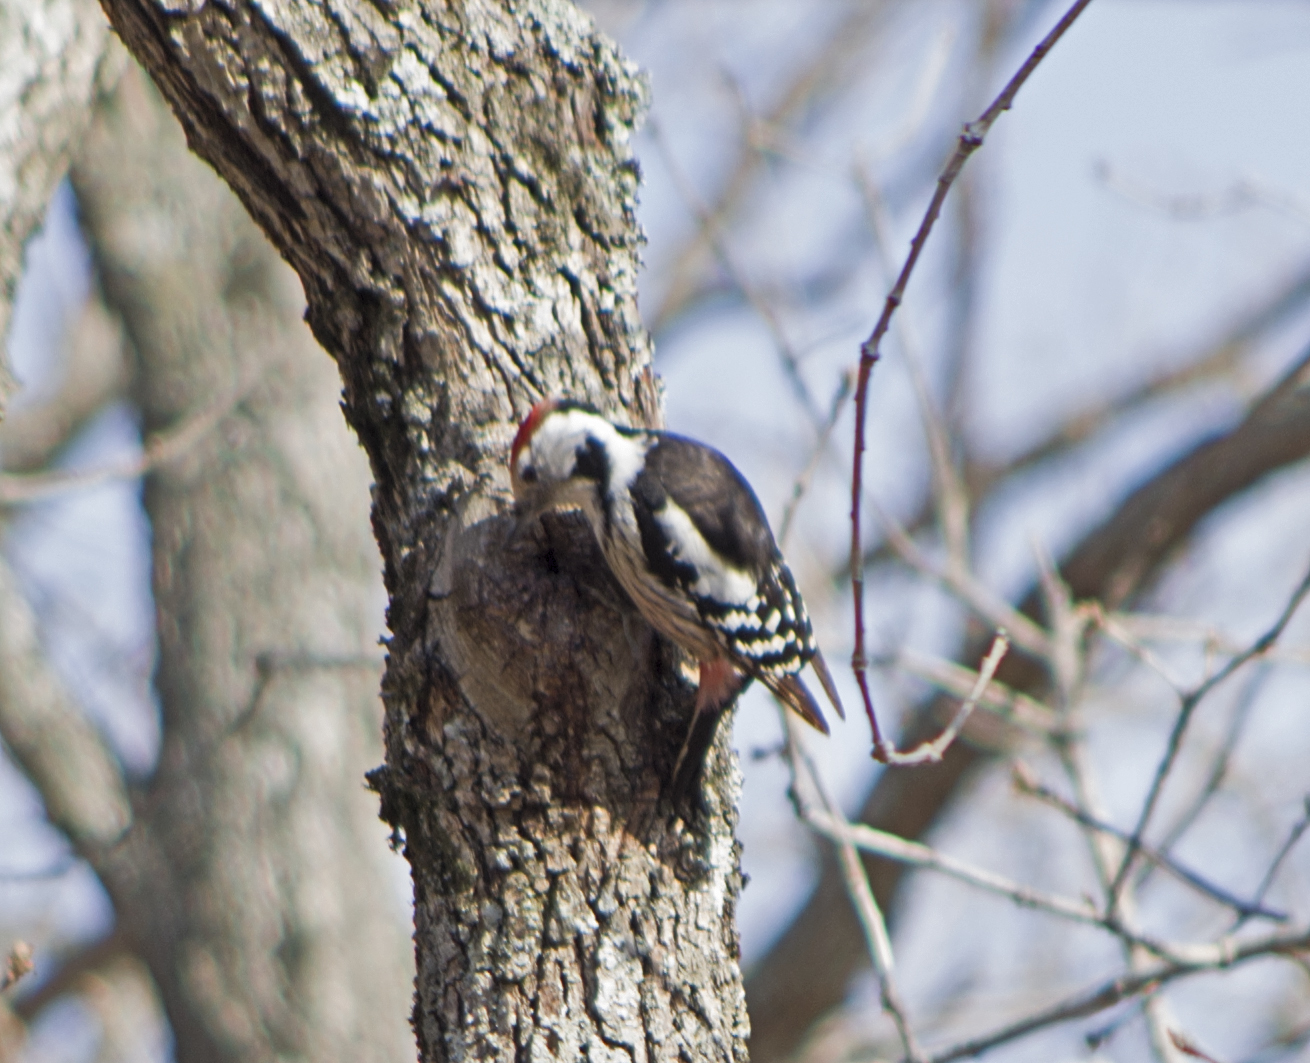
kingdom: Animalia
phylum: Chordata
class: Aves
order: Piciformes
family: Picidae
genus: Dendrocoptes
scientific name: Dendrocoptes medius
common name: Middle spotted woodpecker
